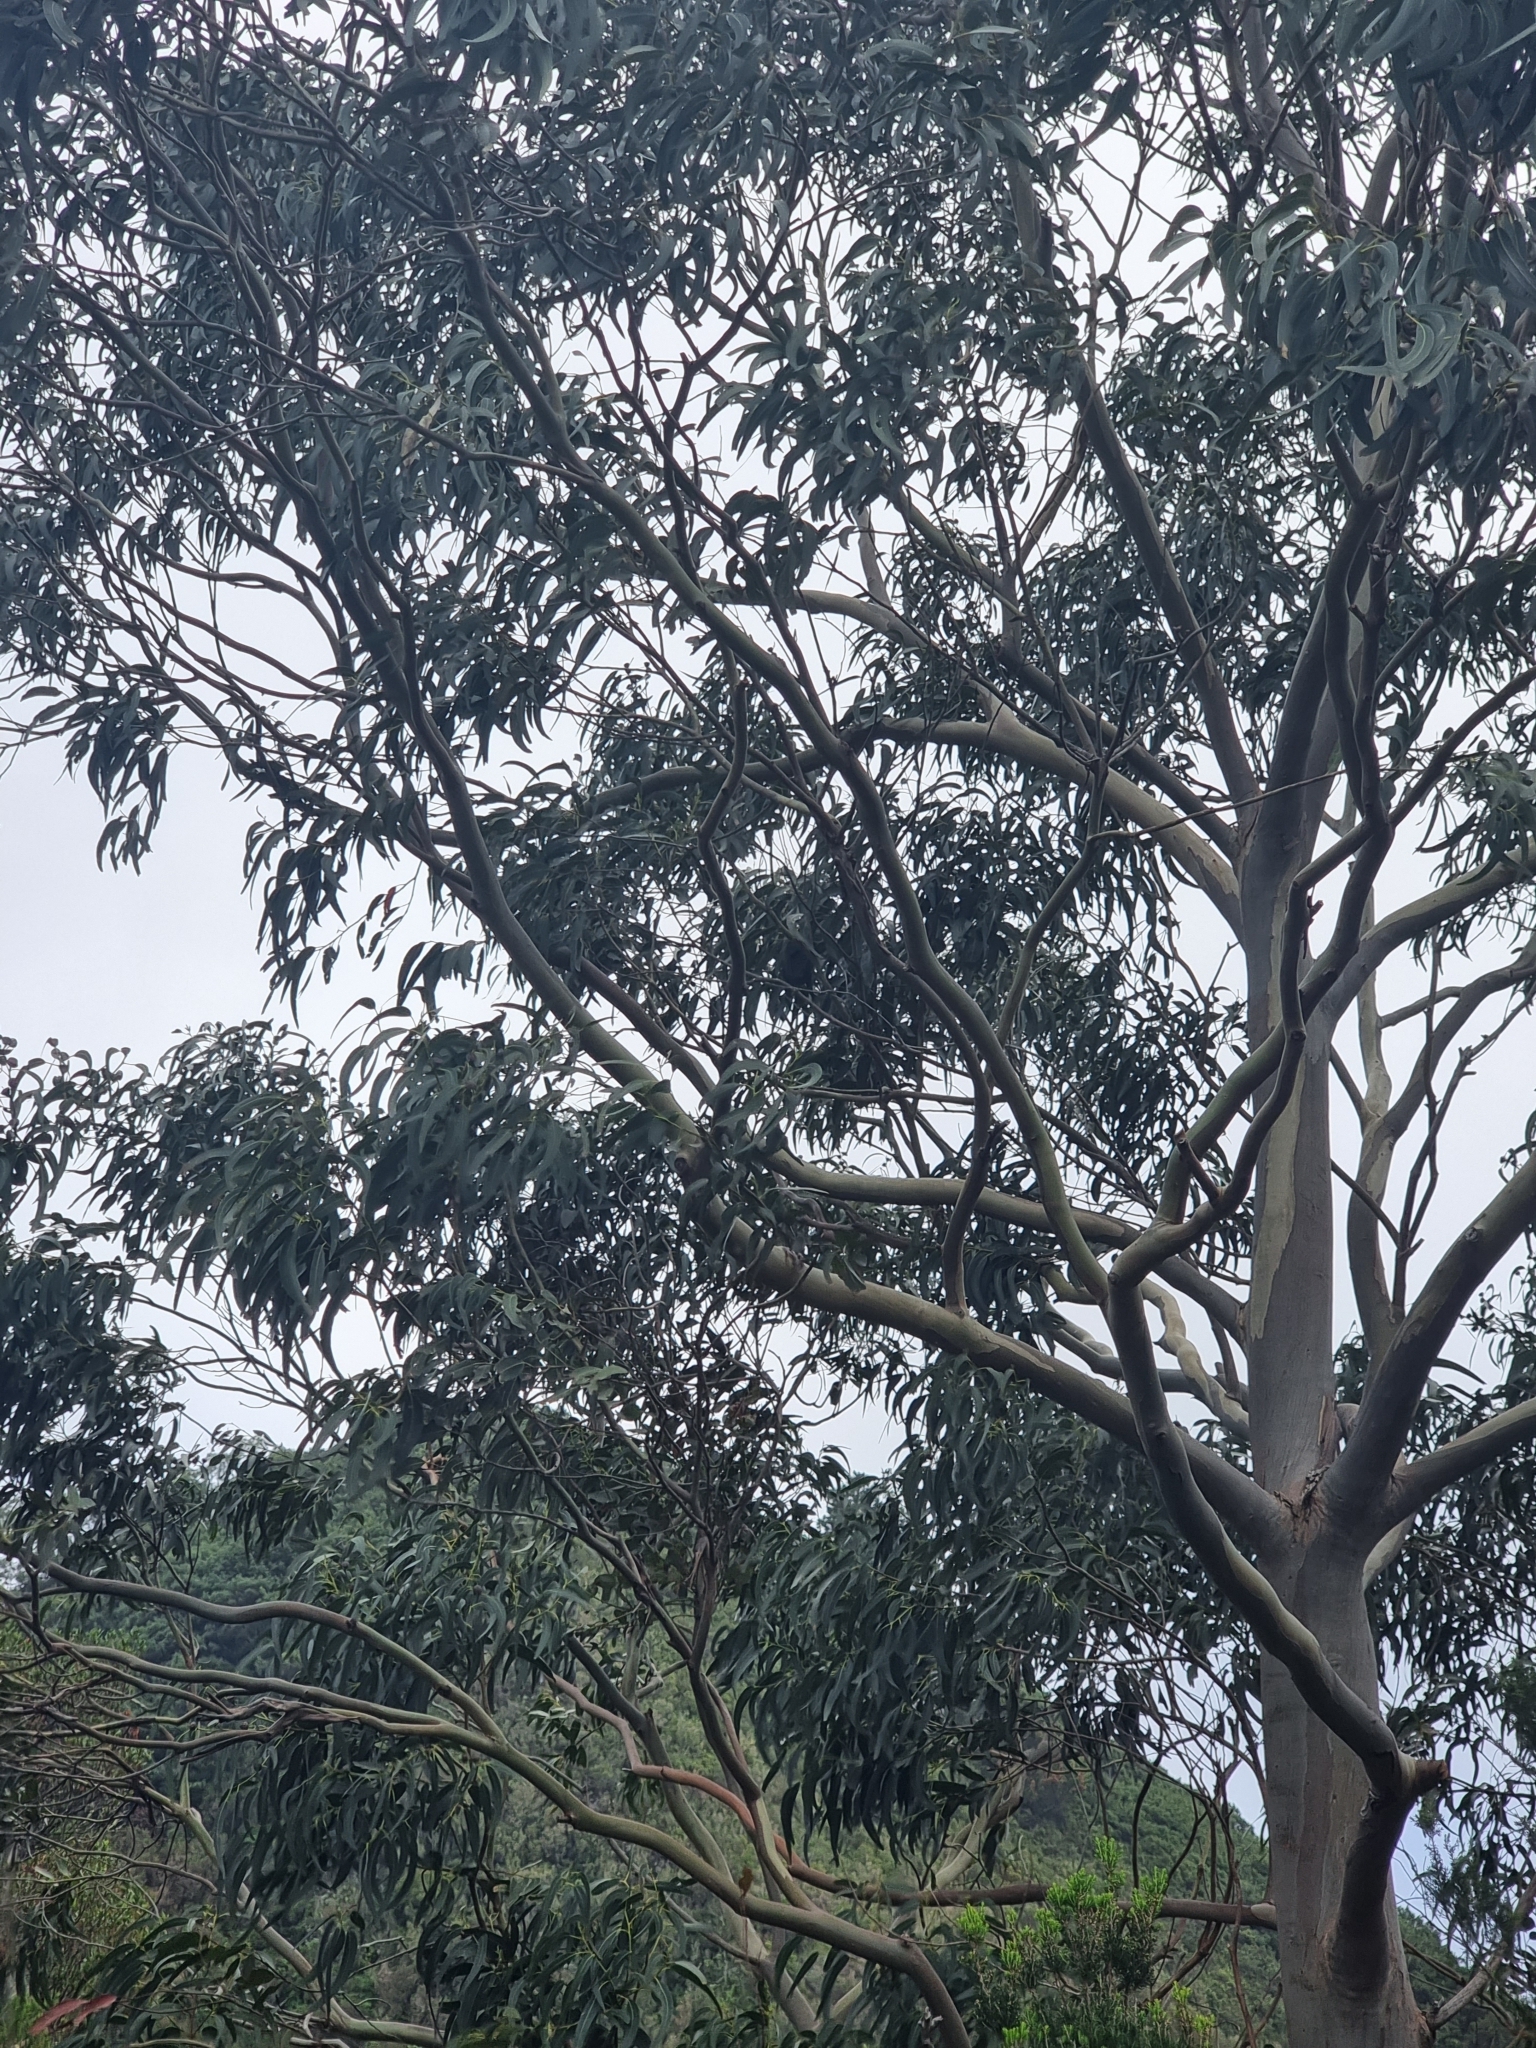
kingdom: Plantae
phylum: Tracheophyta
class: Magnoliopsida
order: Myrtales
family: Myrtaceae
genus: Eucalyptus
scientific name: Eucalyptus globulus
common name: Southern blue-gum
